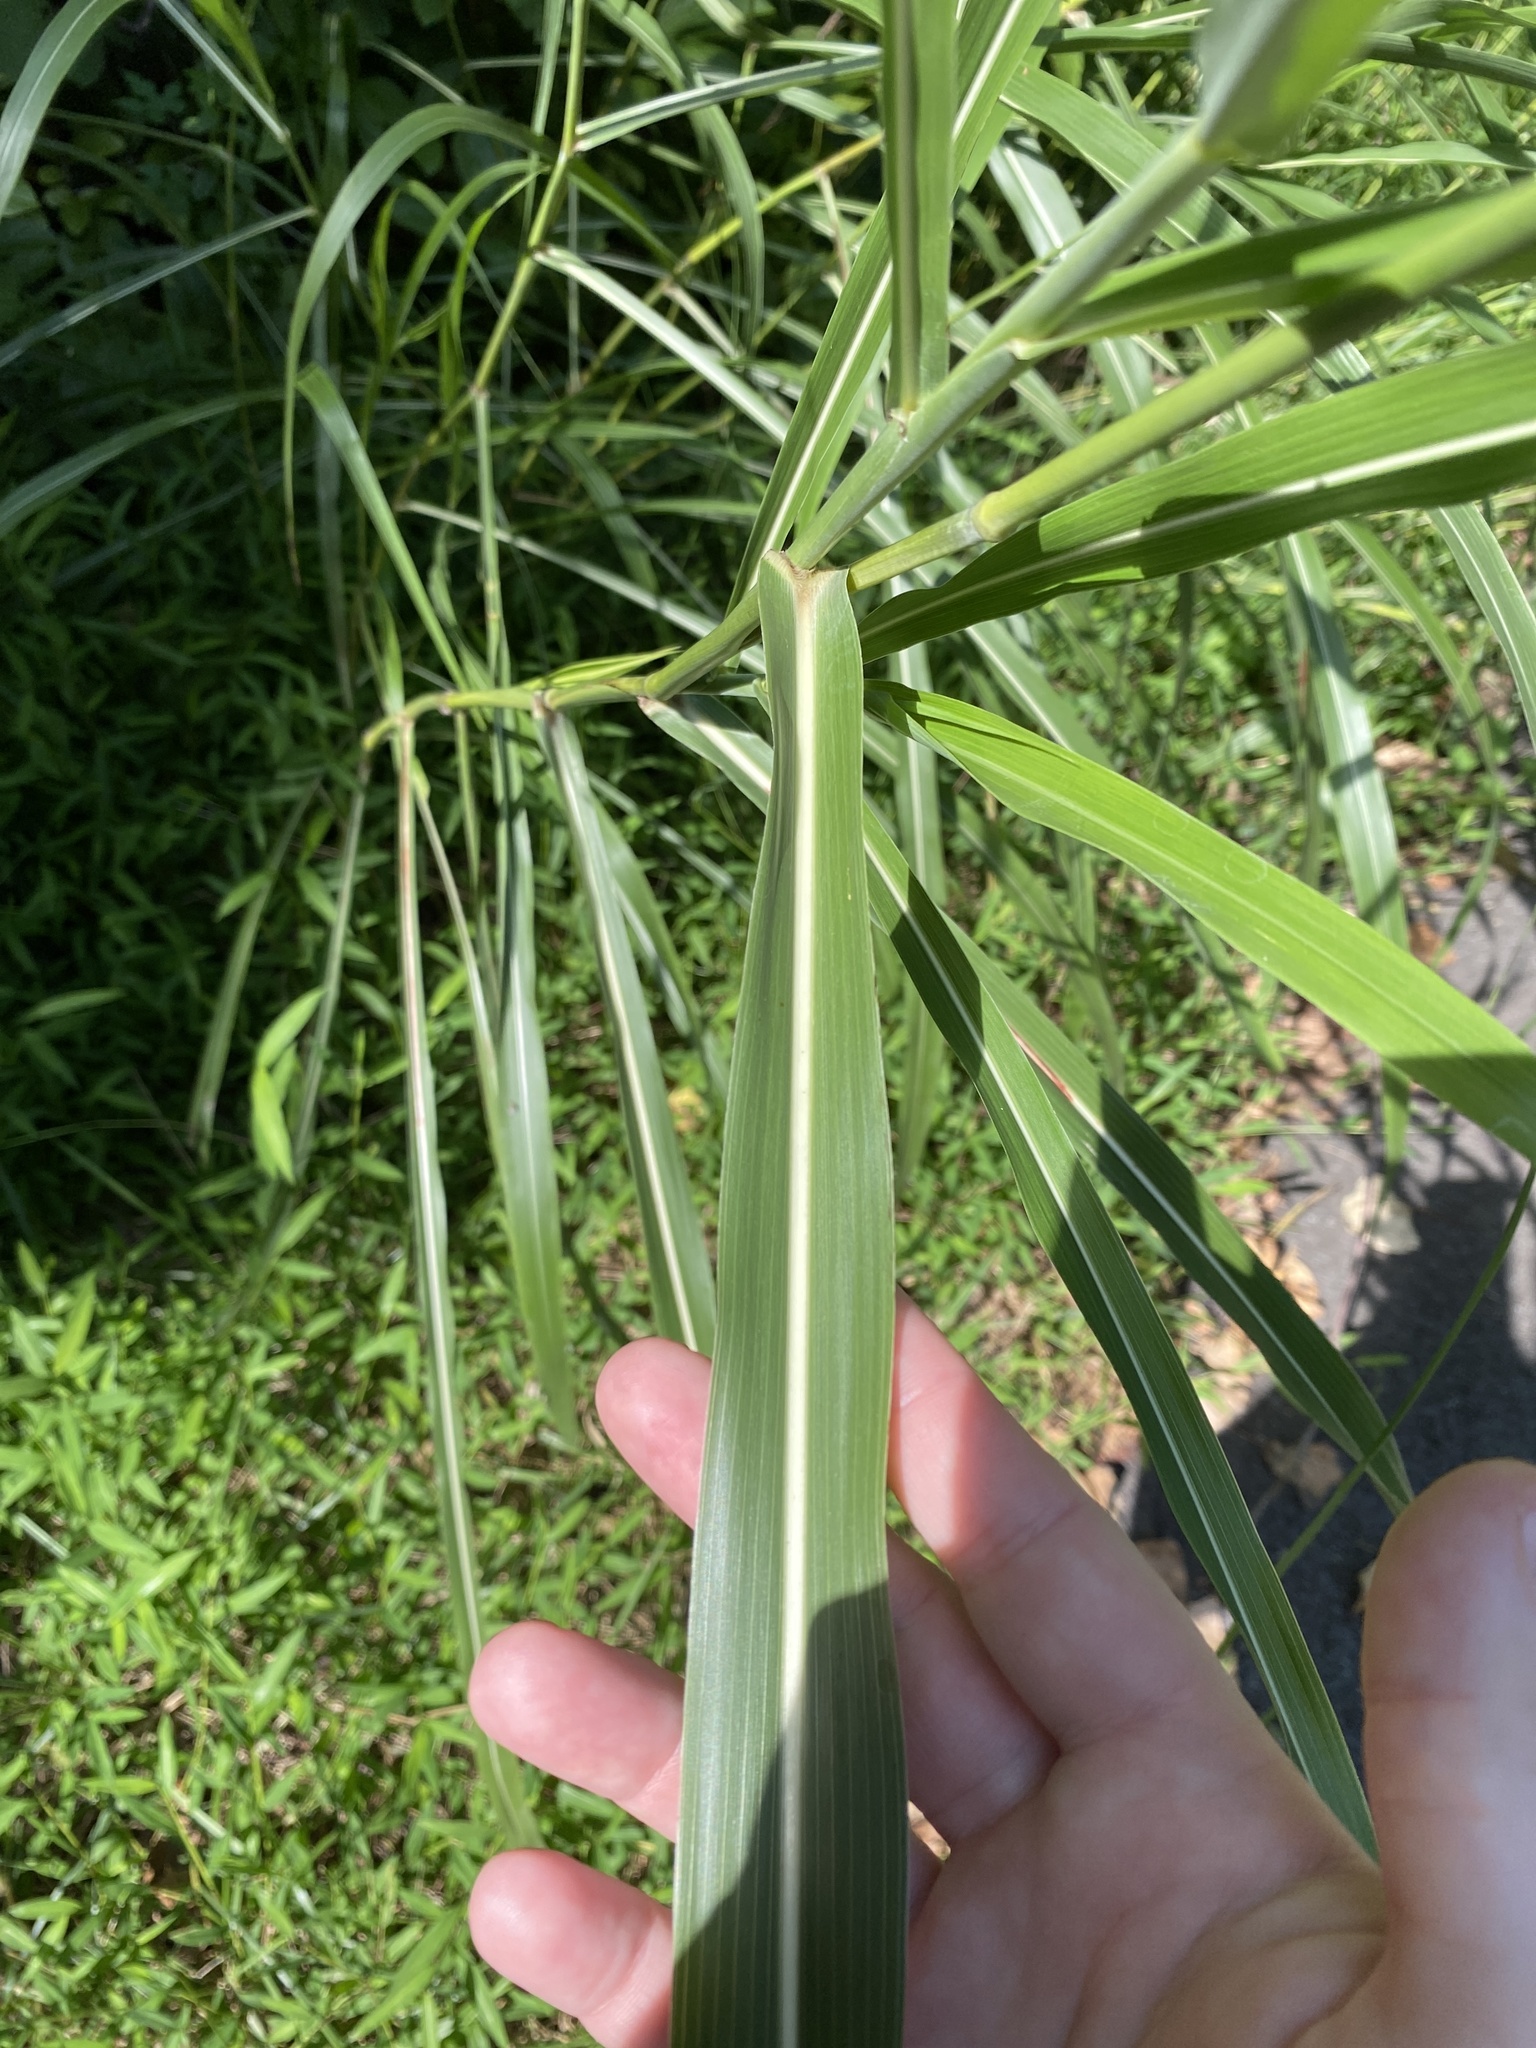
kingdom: Plantae
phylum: Tracheophyta
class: Liliopsida
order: Poales
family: Poaceae
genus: Sorghum
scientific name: Sorghum halepense
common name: Johnson-grass
